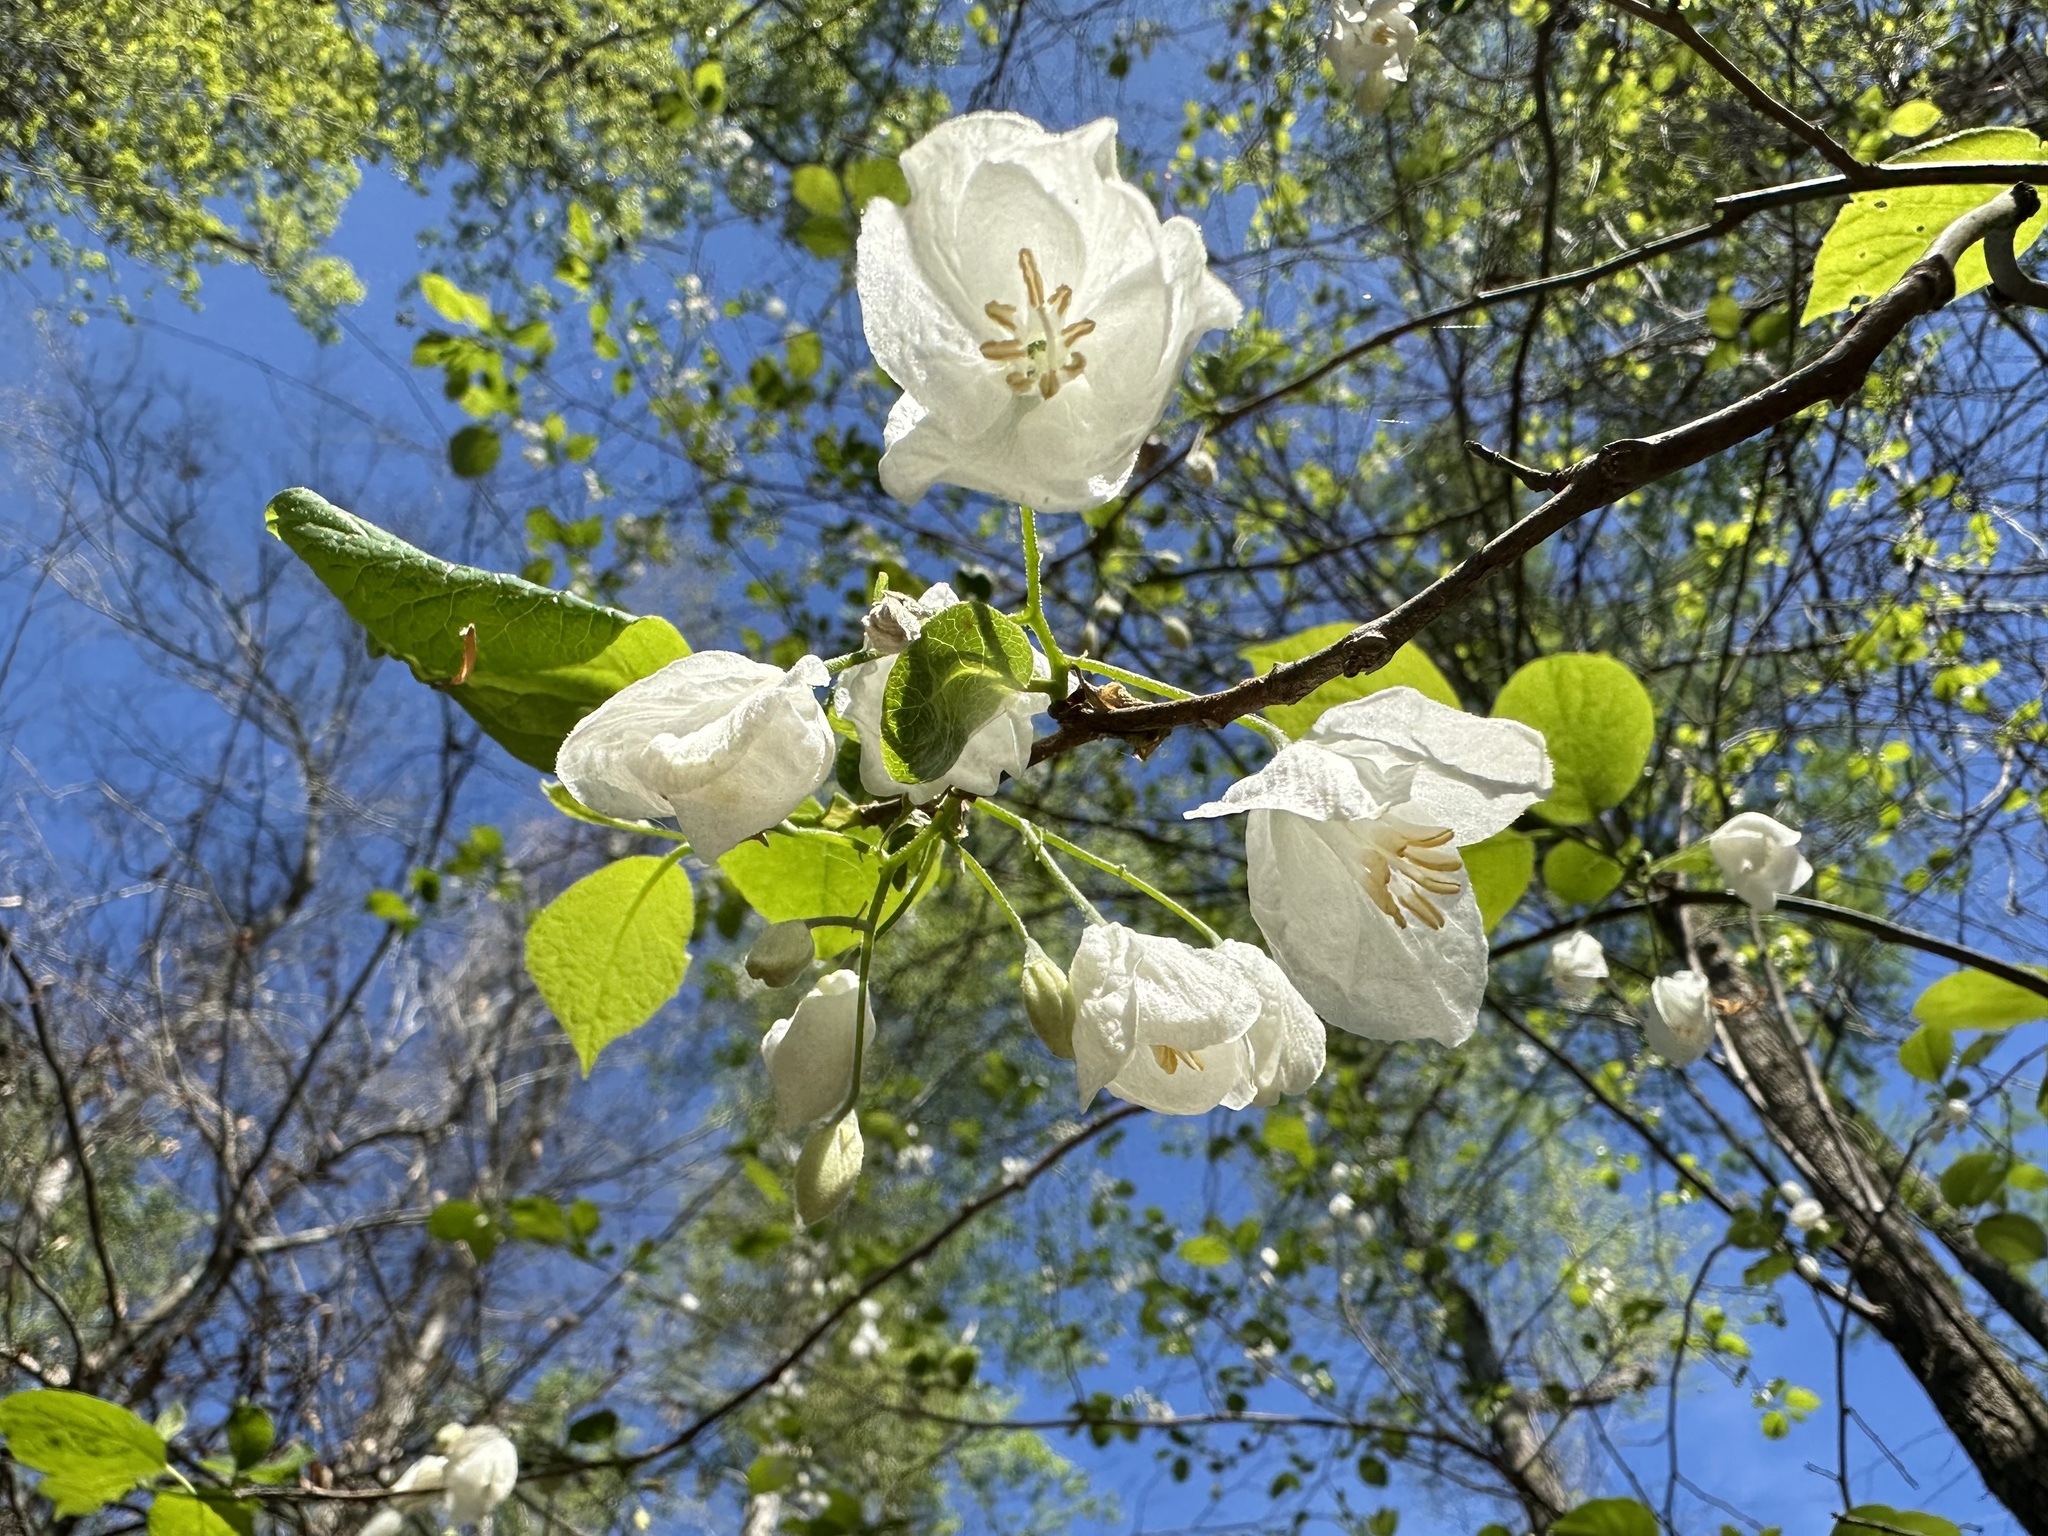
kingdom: Plantae
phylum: Tracheophyta
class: Magnoliopsida
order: Ericales
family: Styracaceae
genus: Halesia
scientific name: Halesia diptera
